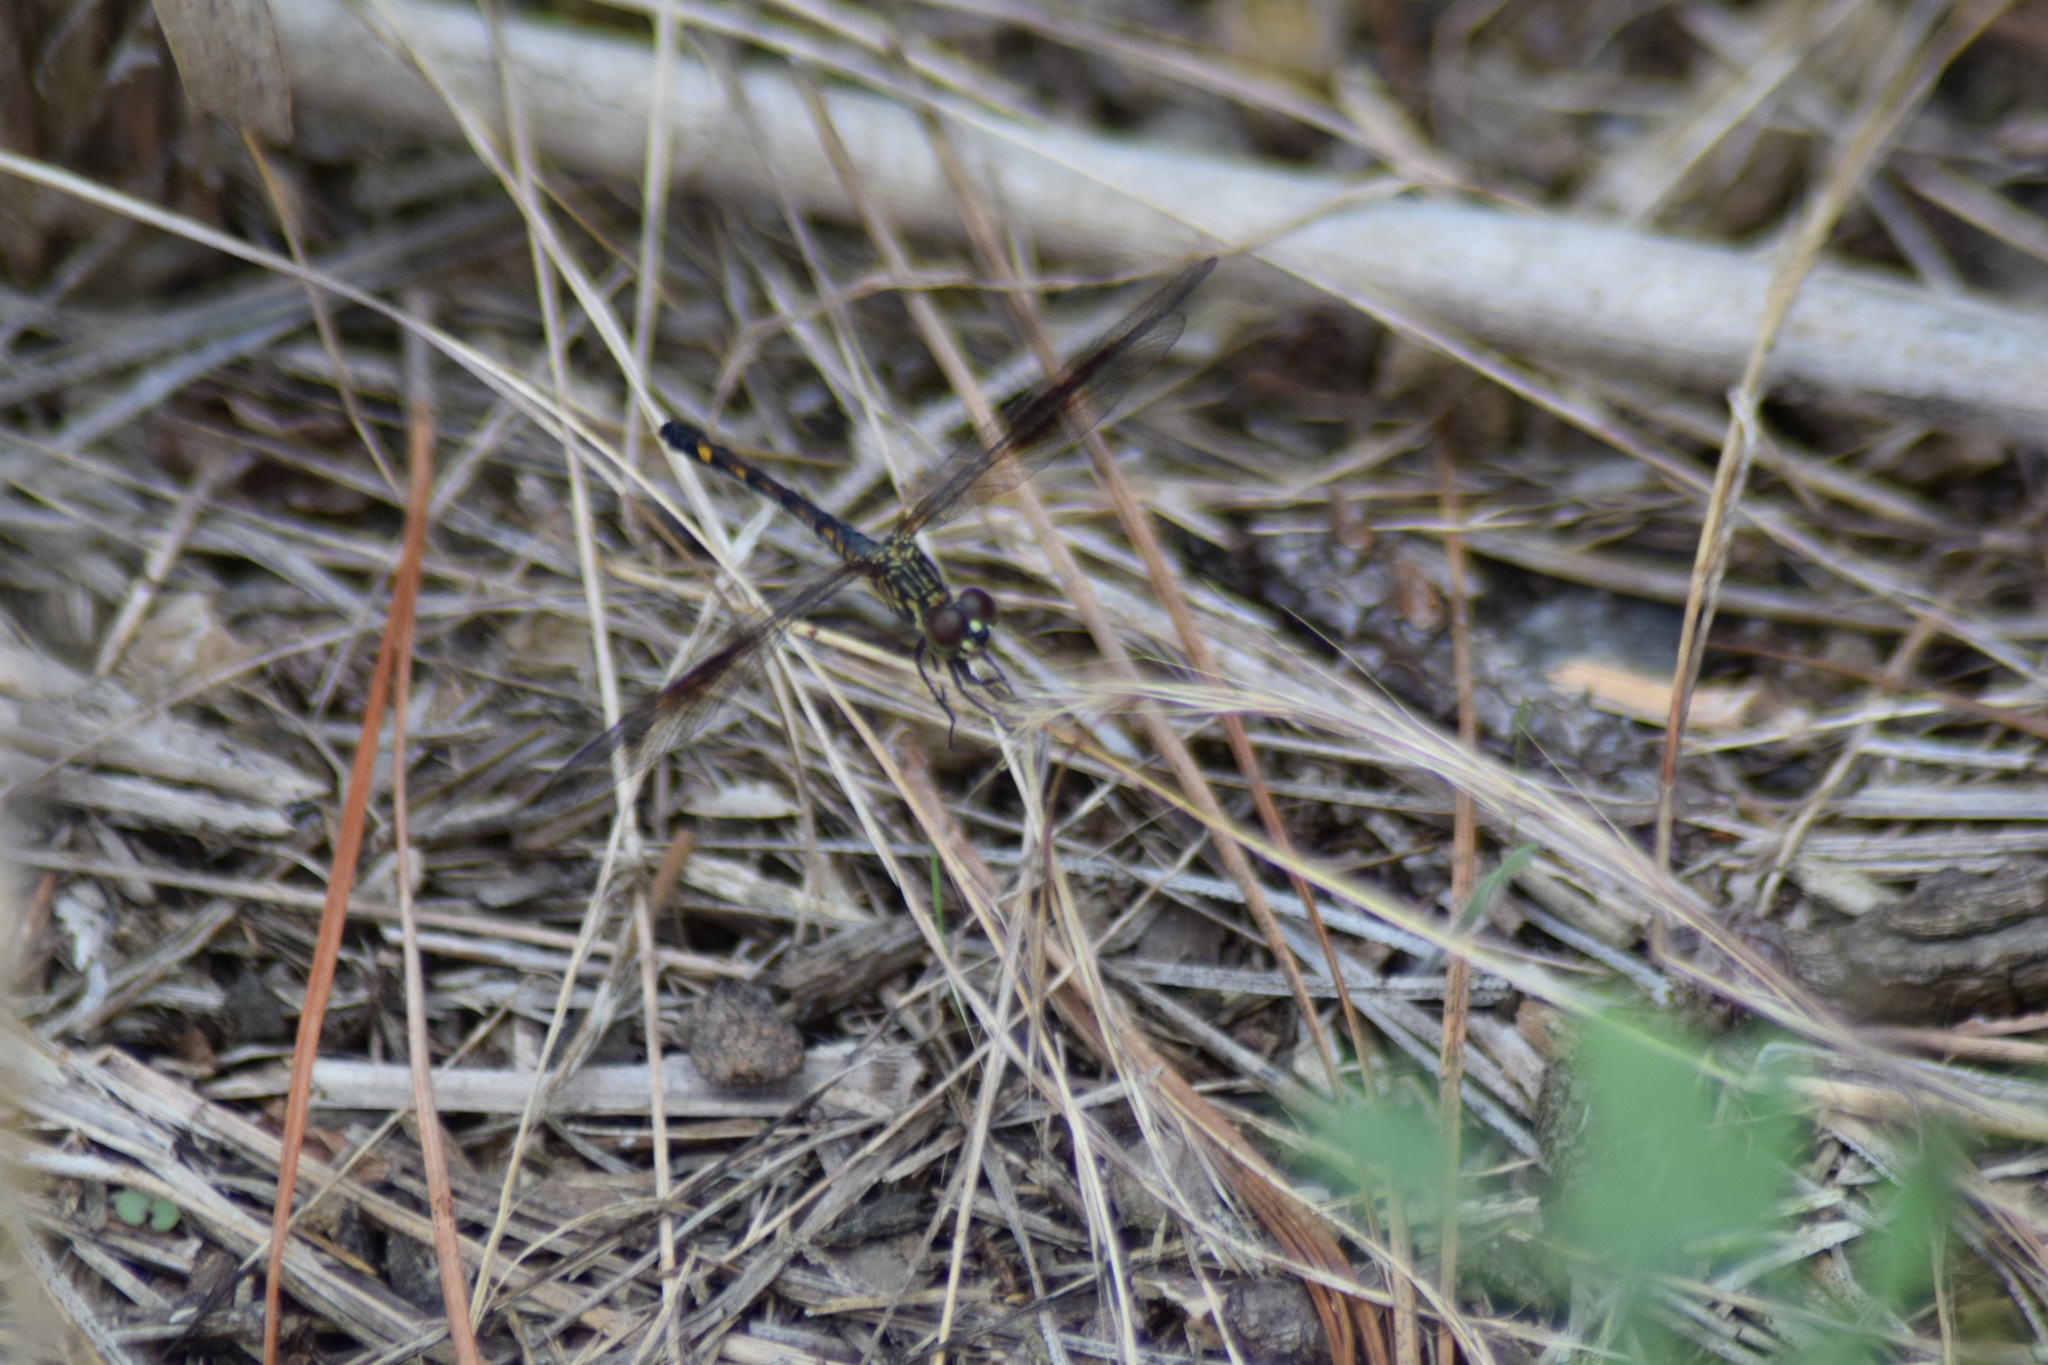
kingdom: Animalia
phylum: Arthropoda
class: Insecta
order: Odonata
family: Libellulidae
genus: Erythrodiplax
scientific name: Erythrodiplax berenice
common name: Seaside dragonlet
